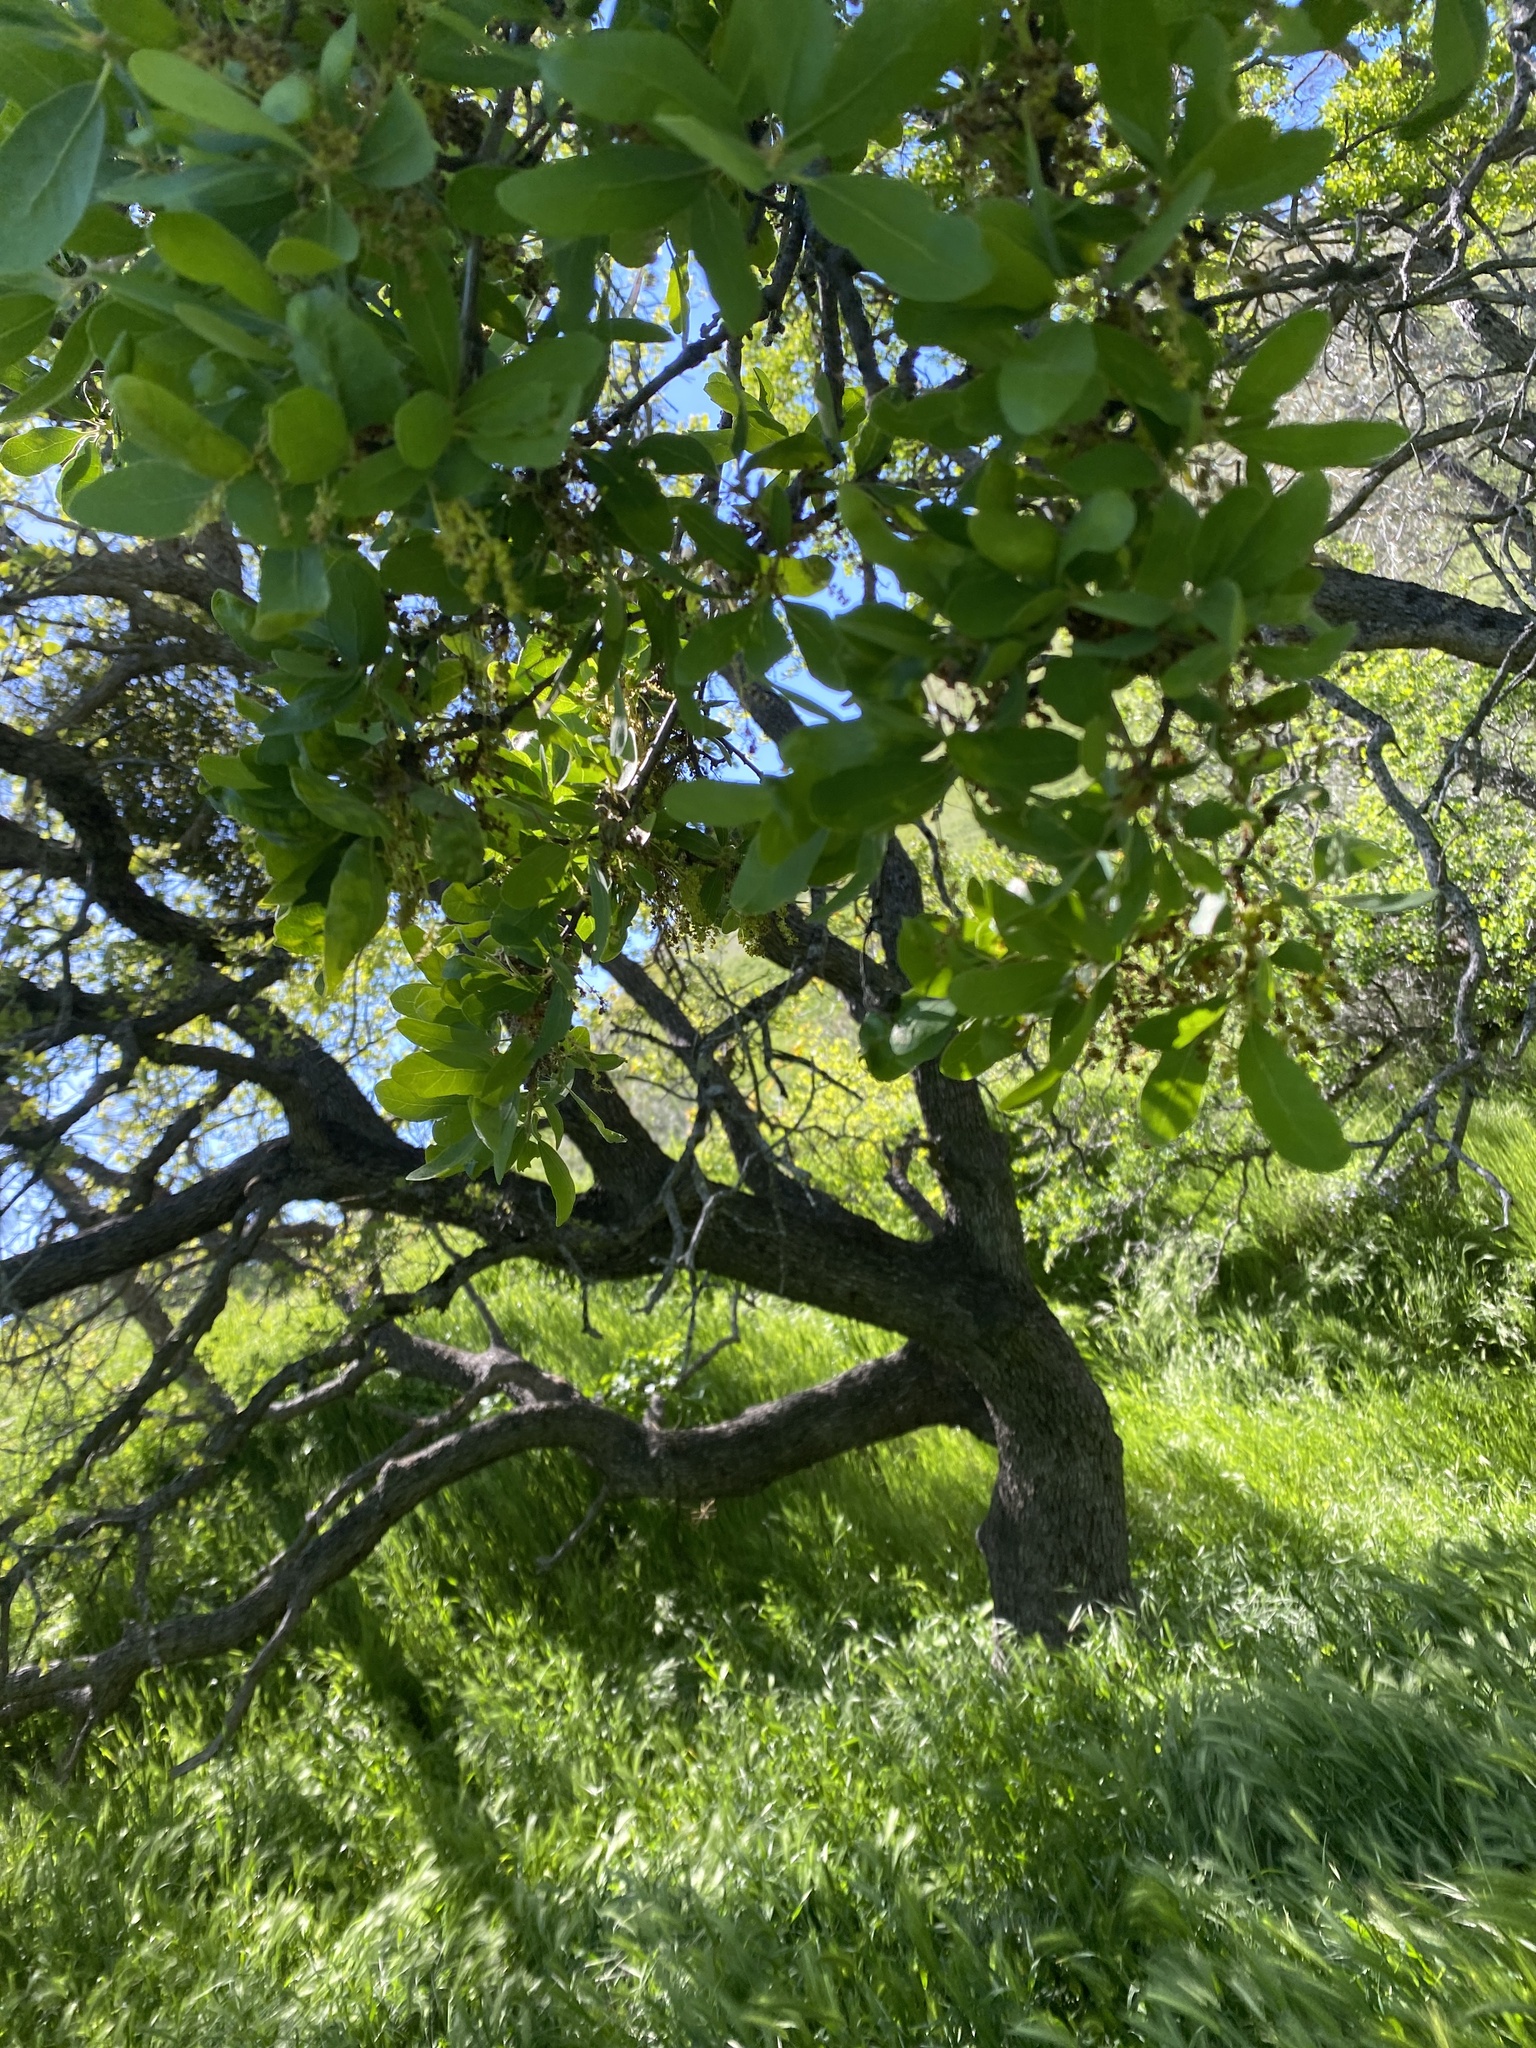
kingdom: Plantae
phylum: Tracheophyta
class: Magnoliopsida
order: Fagales
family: Fagaceae
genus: Quercus
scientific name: Quercus douglasii
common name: Blue oak
